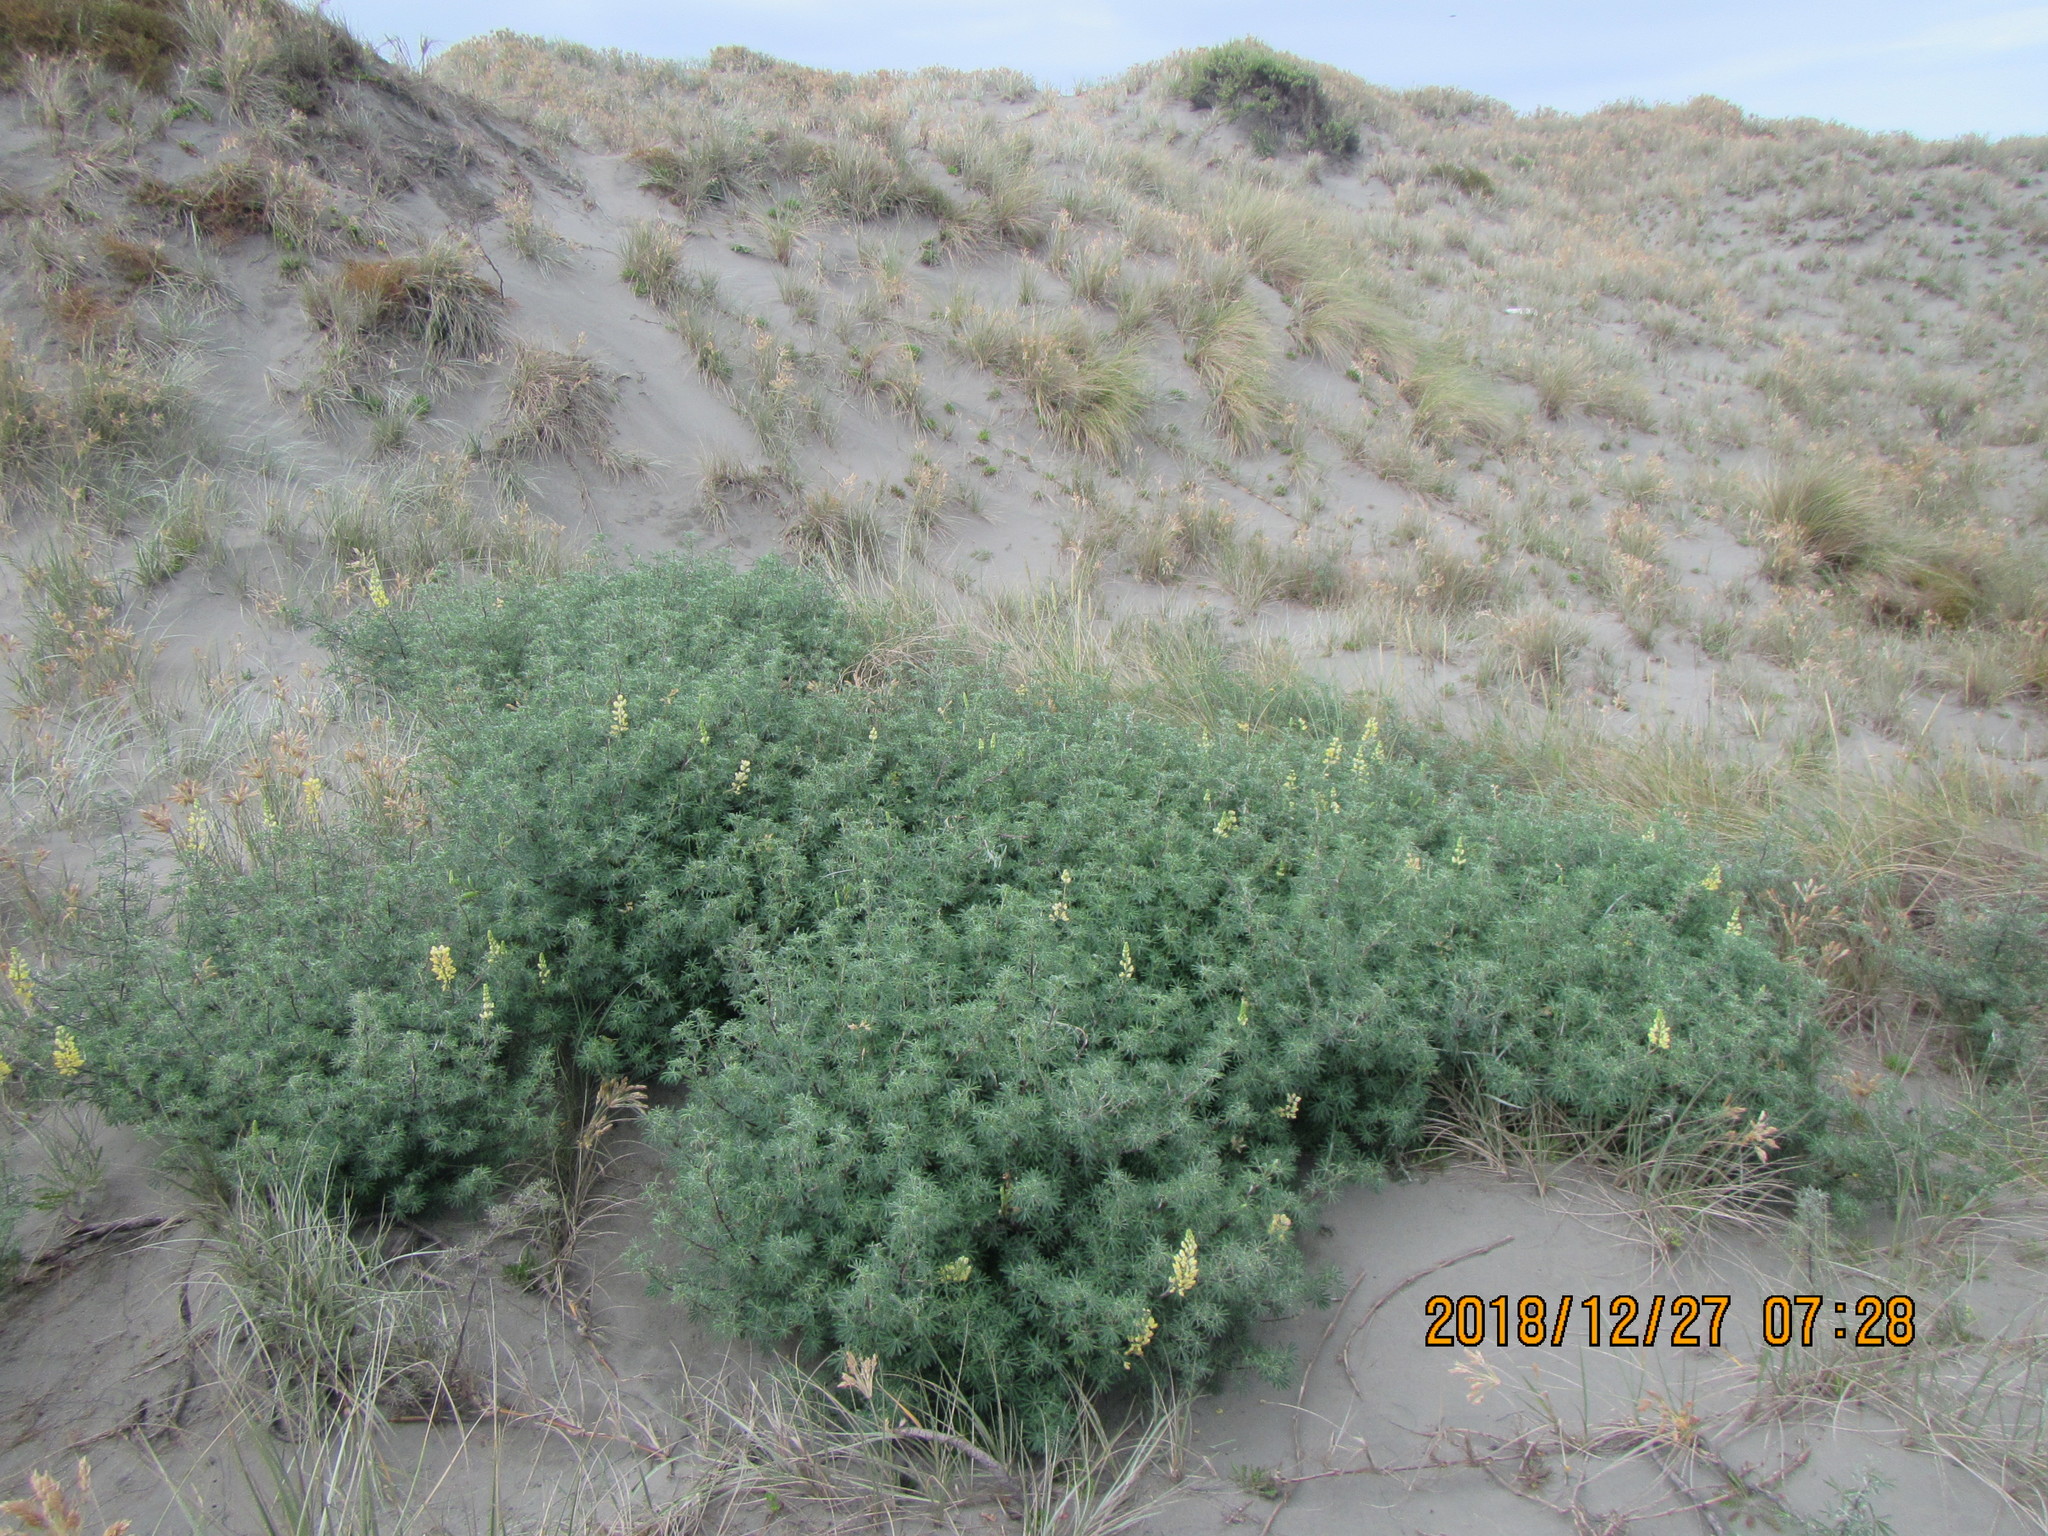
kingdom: Plantae
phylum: Tracheophyta
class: Magnoliopsida
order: Fabales
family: Fabaceae
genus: Lupinus
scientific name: Lupinus arboreus
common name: Yellow bush lupine
